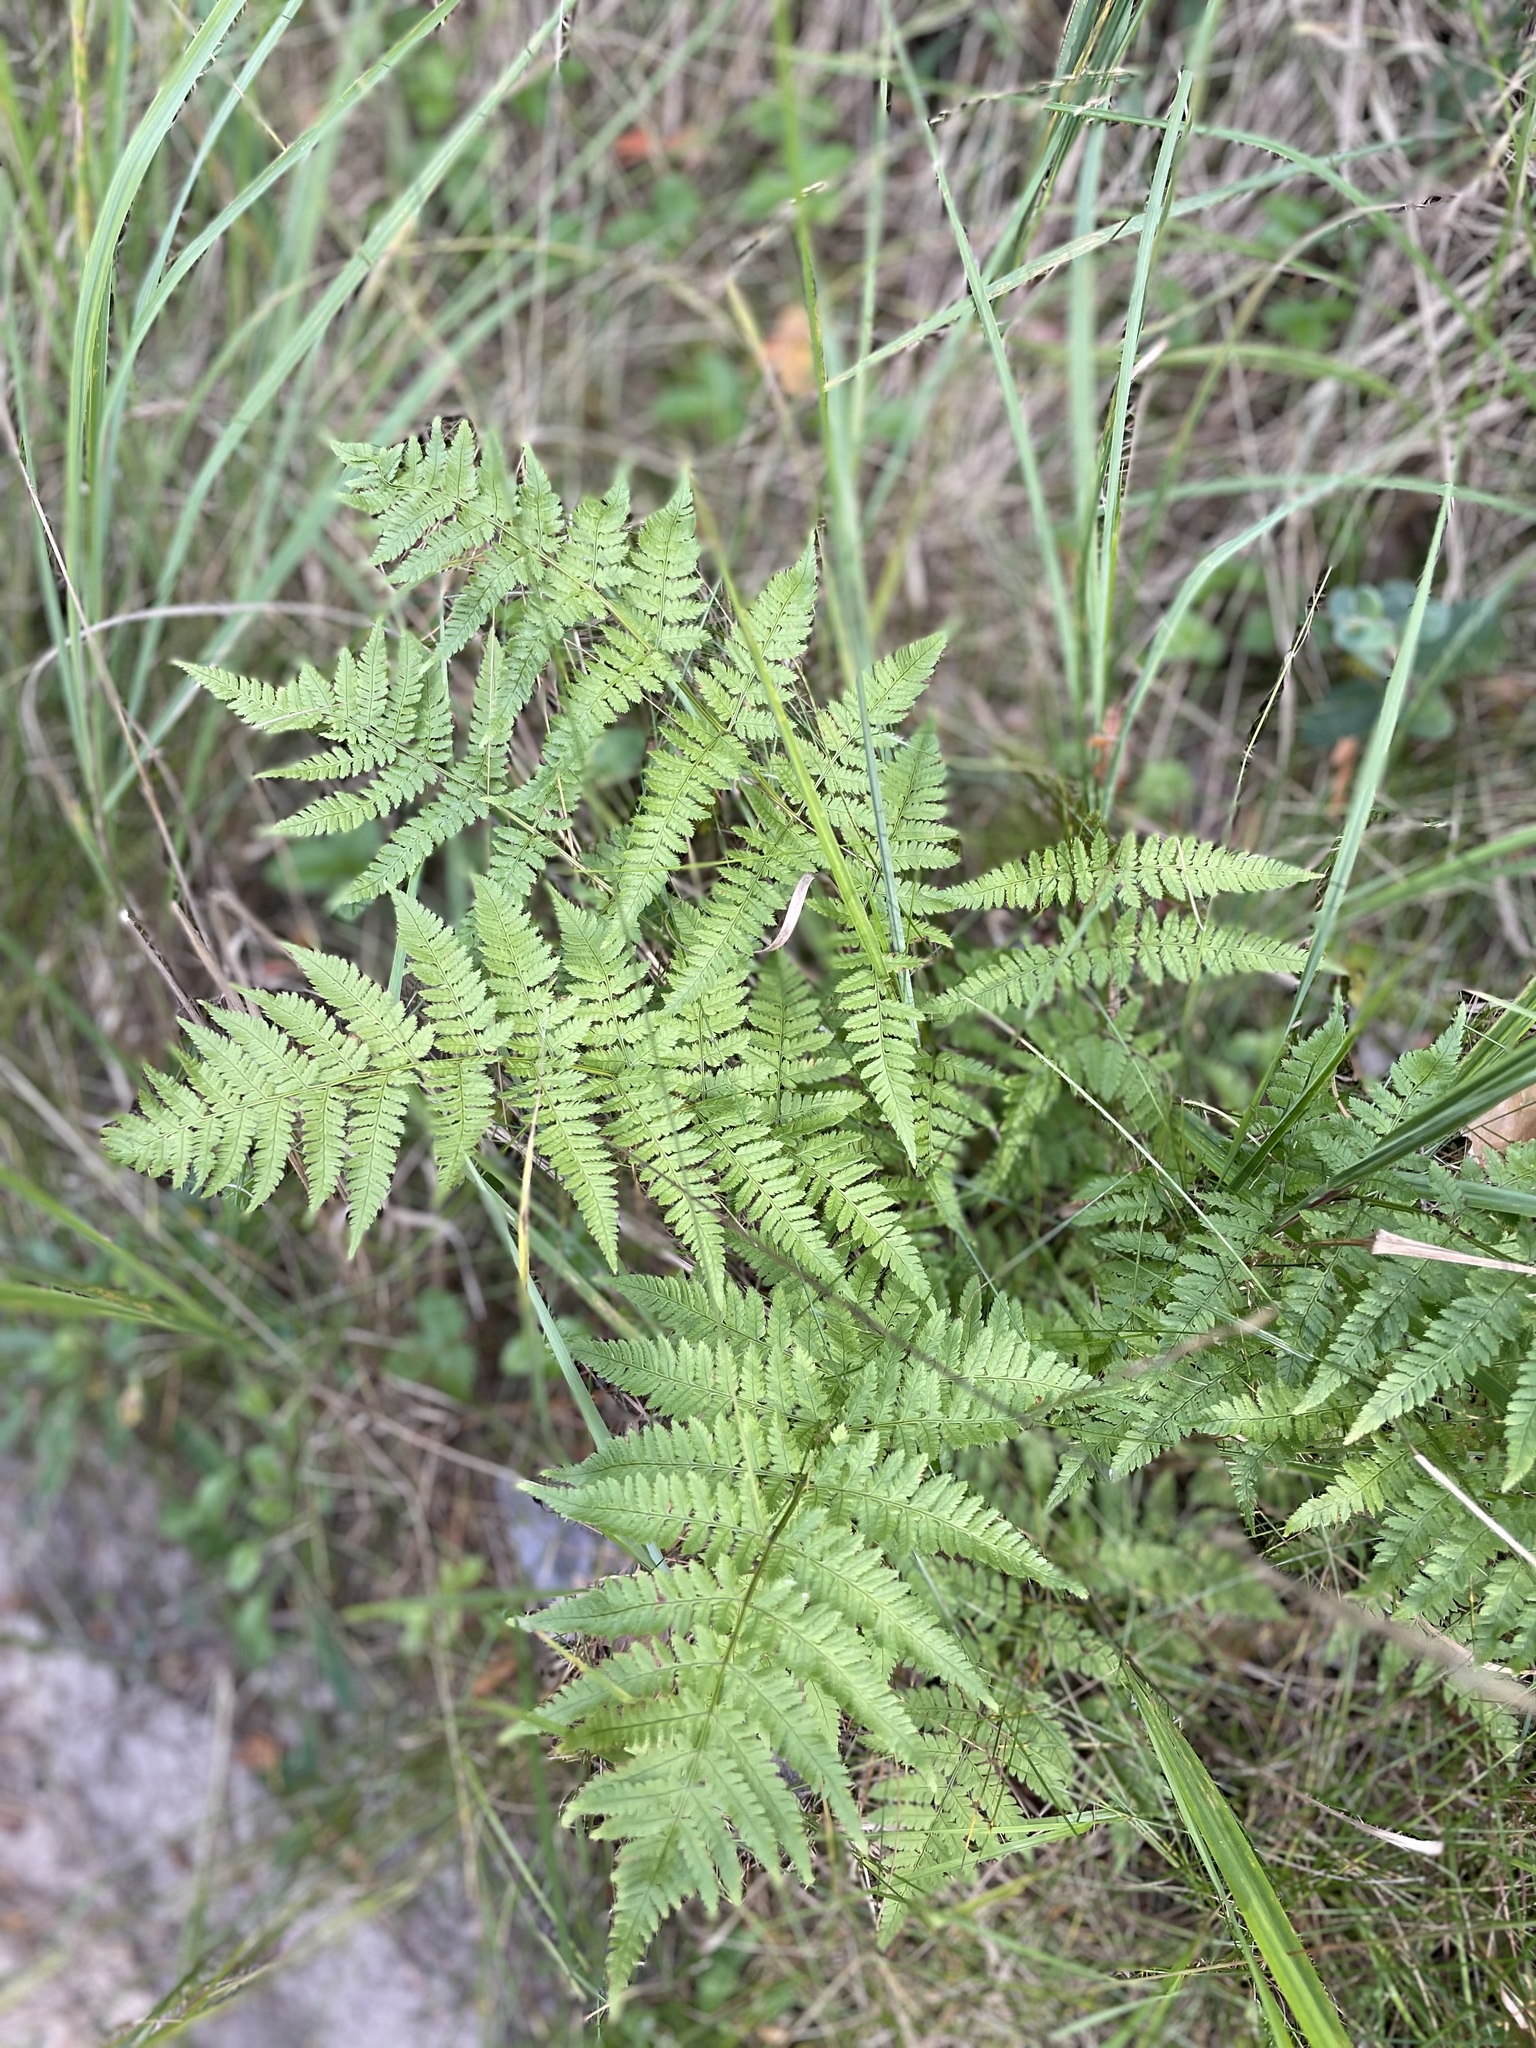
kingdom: Plantae
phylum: Tracheophyta
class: Polypodiopsida
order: Polypodiales
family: Dryopteridaceae
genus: Dryopteris
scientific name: Dryopteris carthusiana
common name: Narrow buckler-fern
